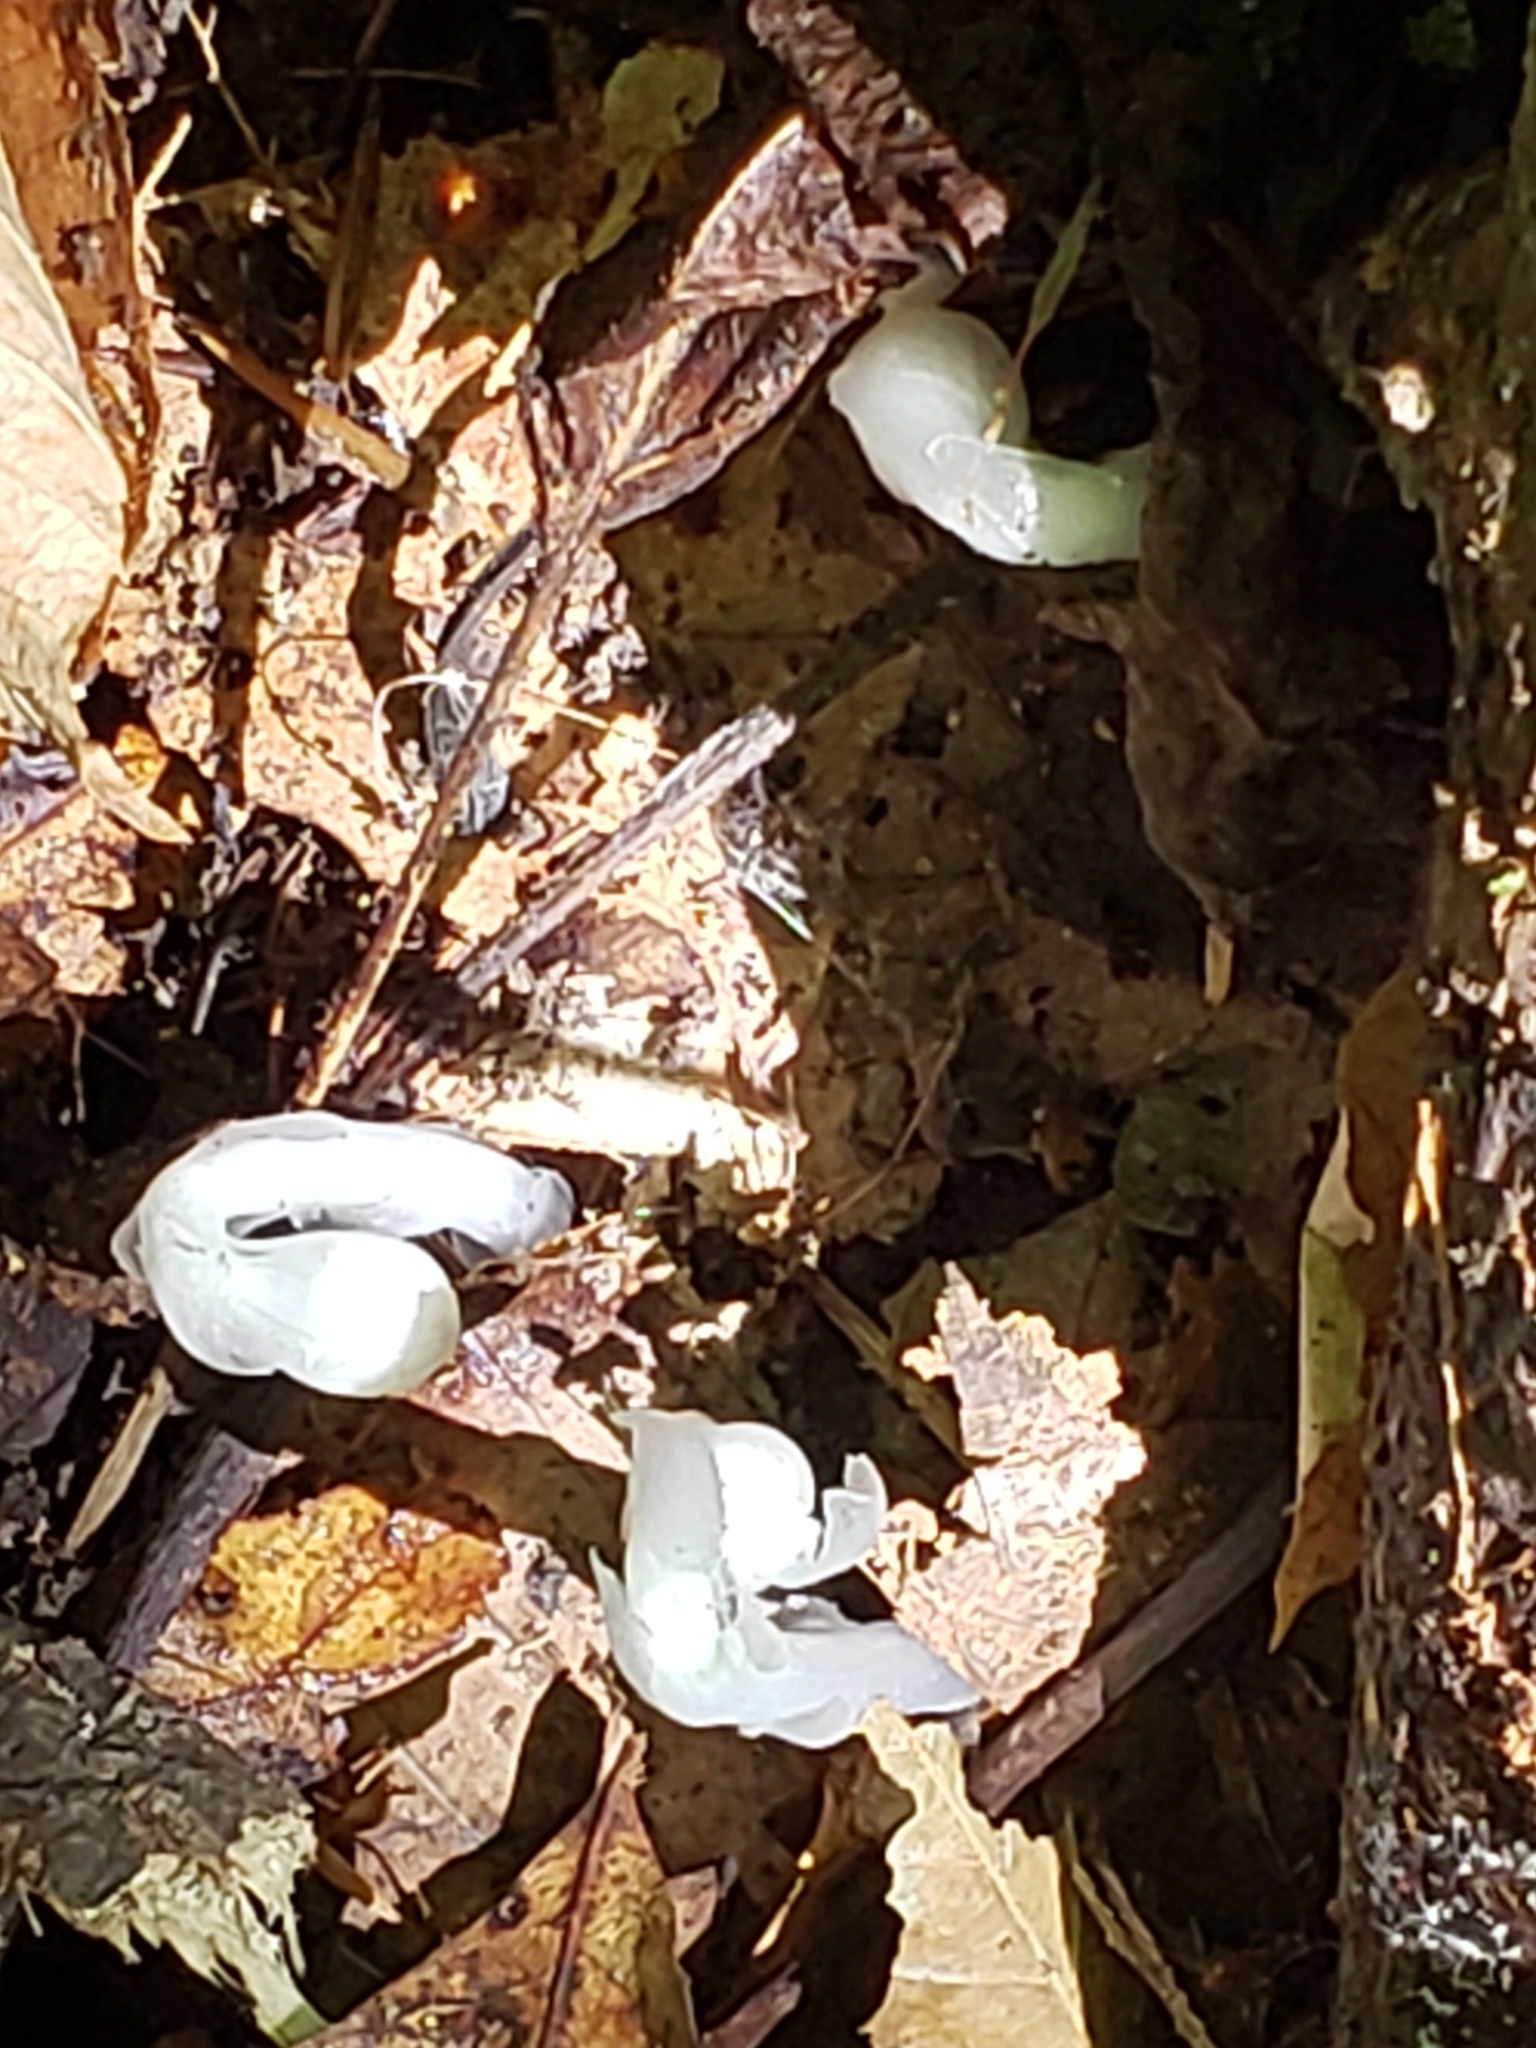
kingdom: Plantae
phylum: Tracheophyta
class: Magnoliopsida
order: Ericales
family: Ericaceae
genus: Monotropa
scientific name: Monotropa uniflora
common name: Convulsion root
